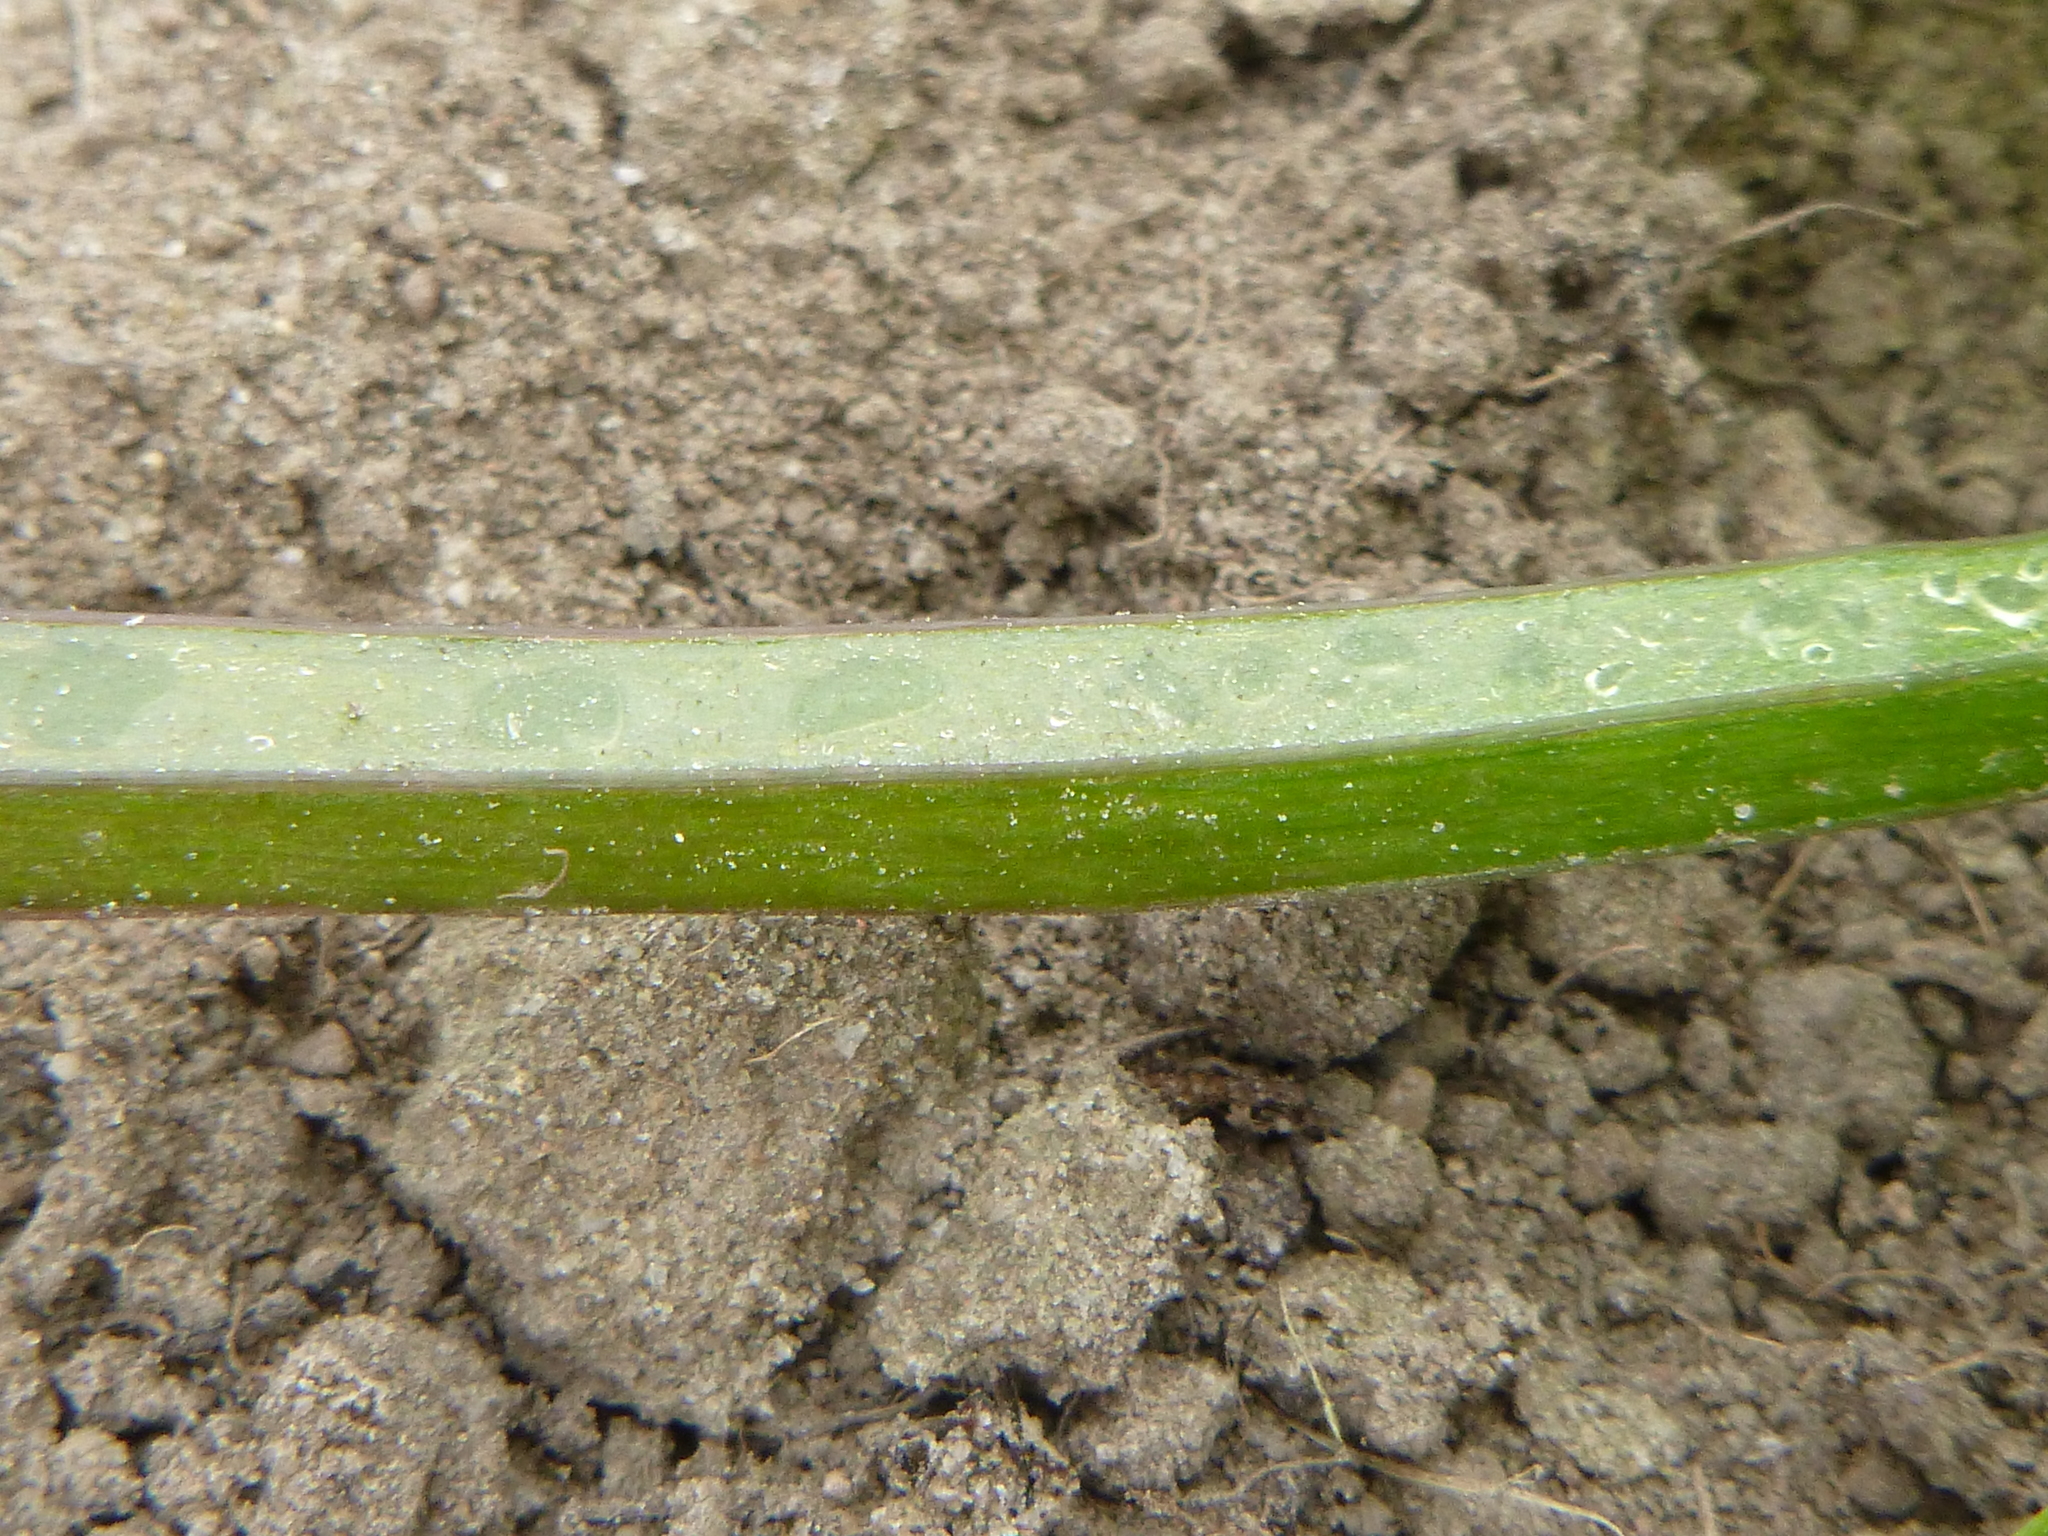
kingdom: Plantae
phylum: Tracheophyta
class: Magnoliopsida
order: Lamiales
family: Lamiaceae
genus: Lamium
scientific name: Lamium purpureum
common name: Red dead-nettle
